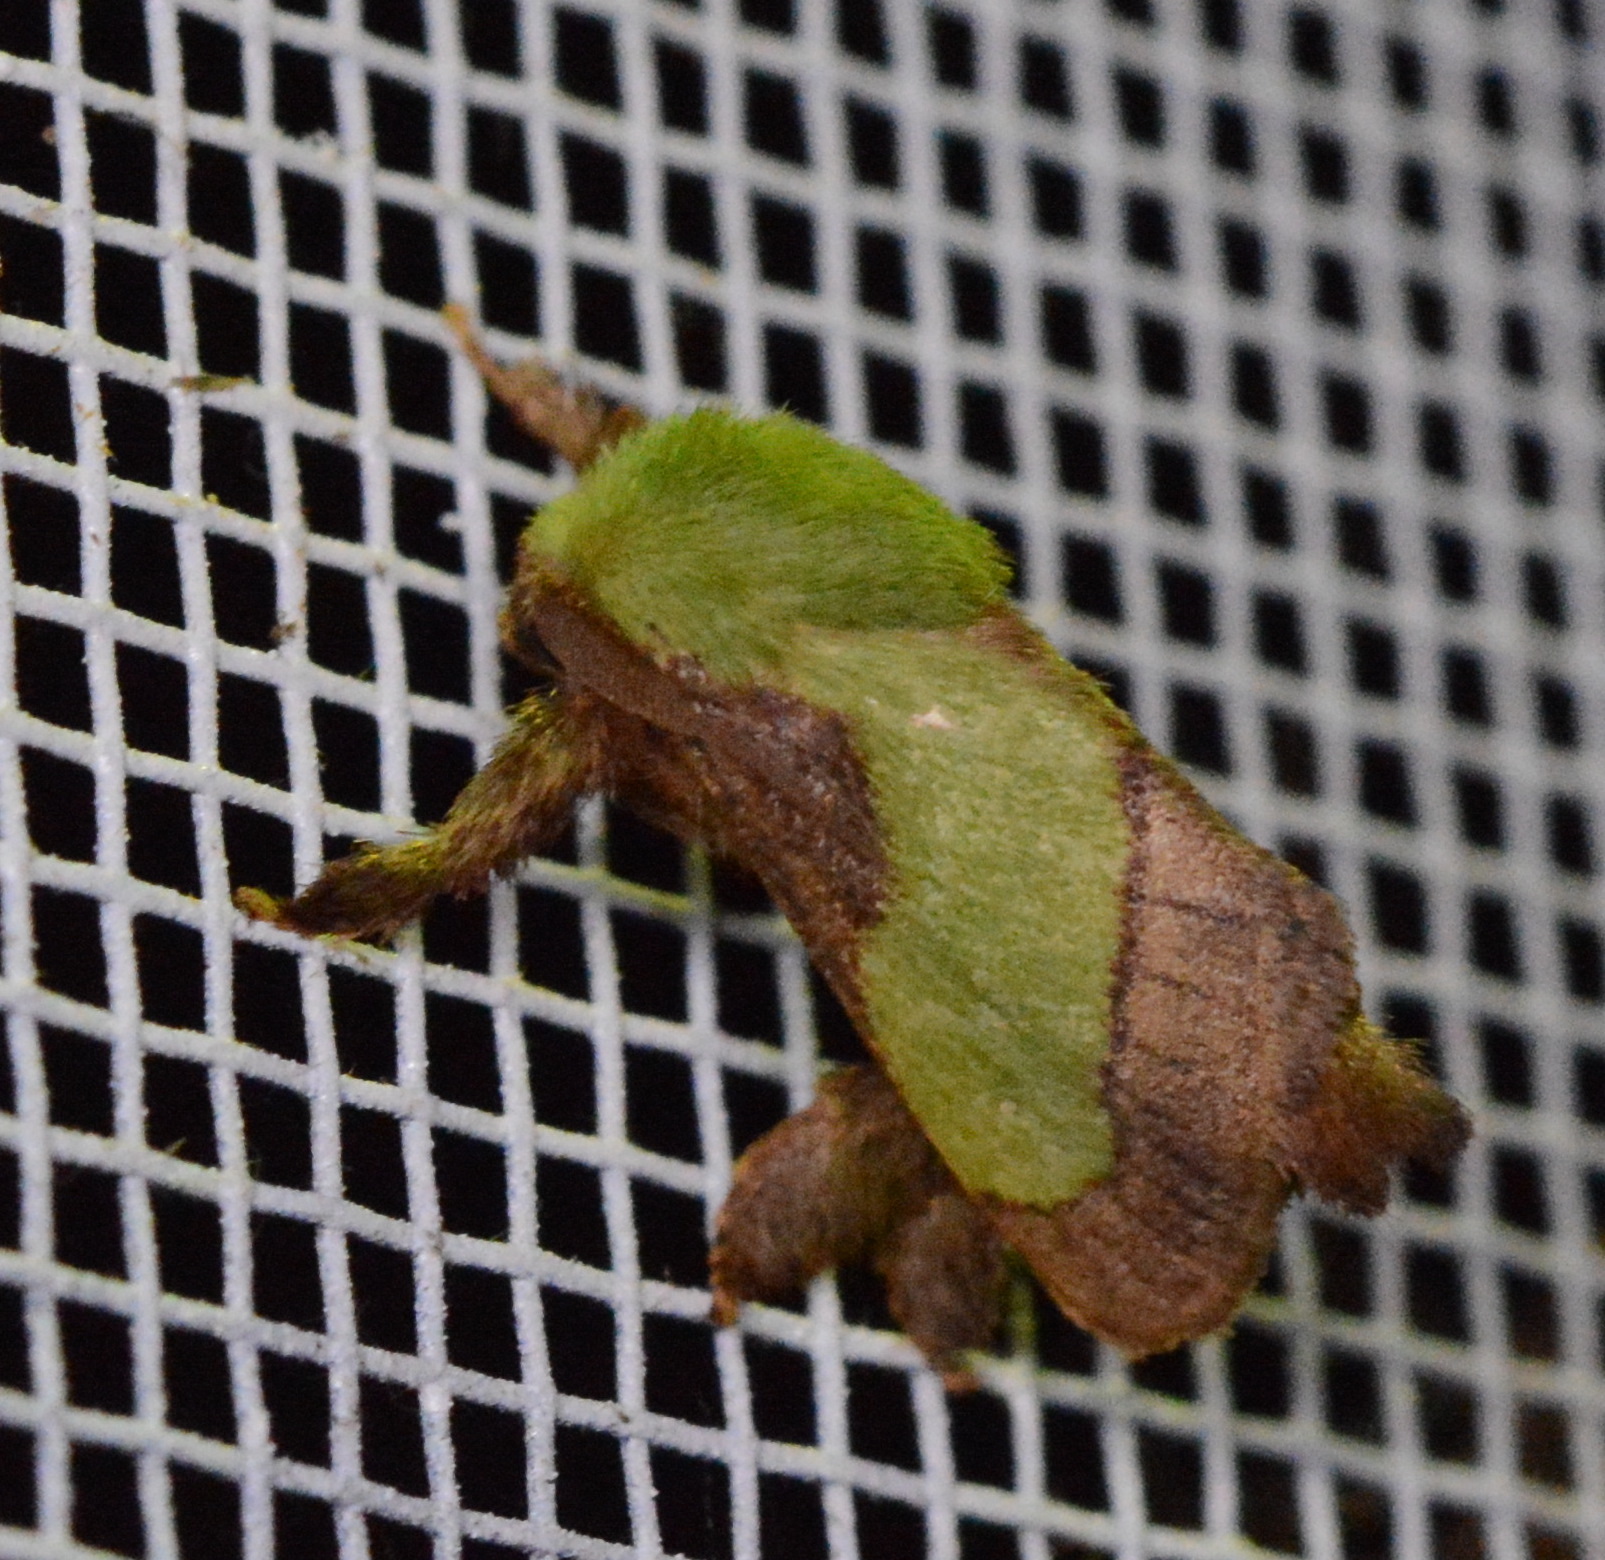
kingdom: Animalia
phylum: Arthropoda
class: Insecta
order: Lepidoptera
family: Limacodidae
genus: Parasa
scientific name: Parasa chloris
